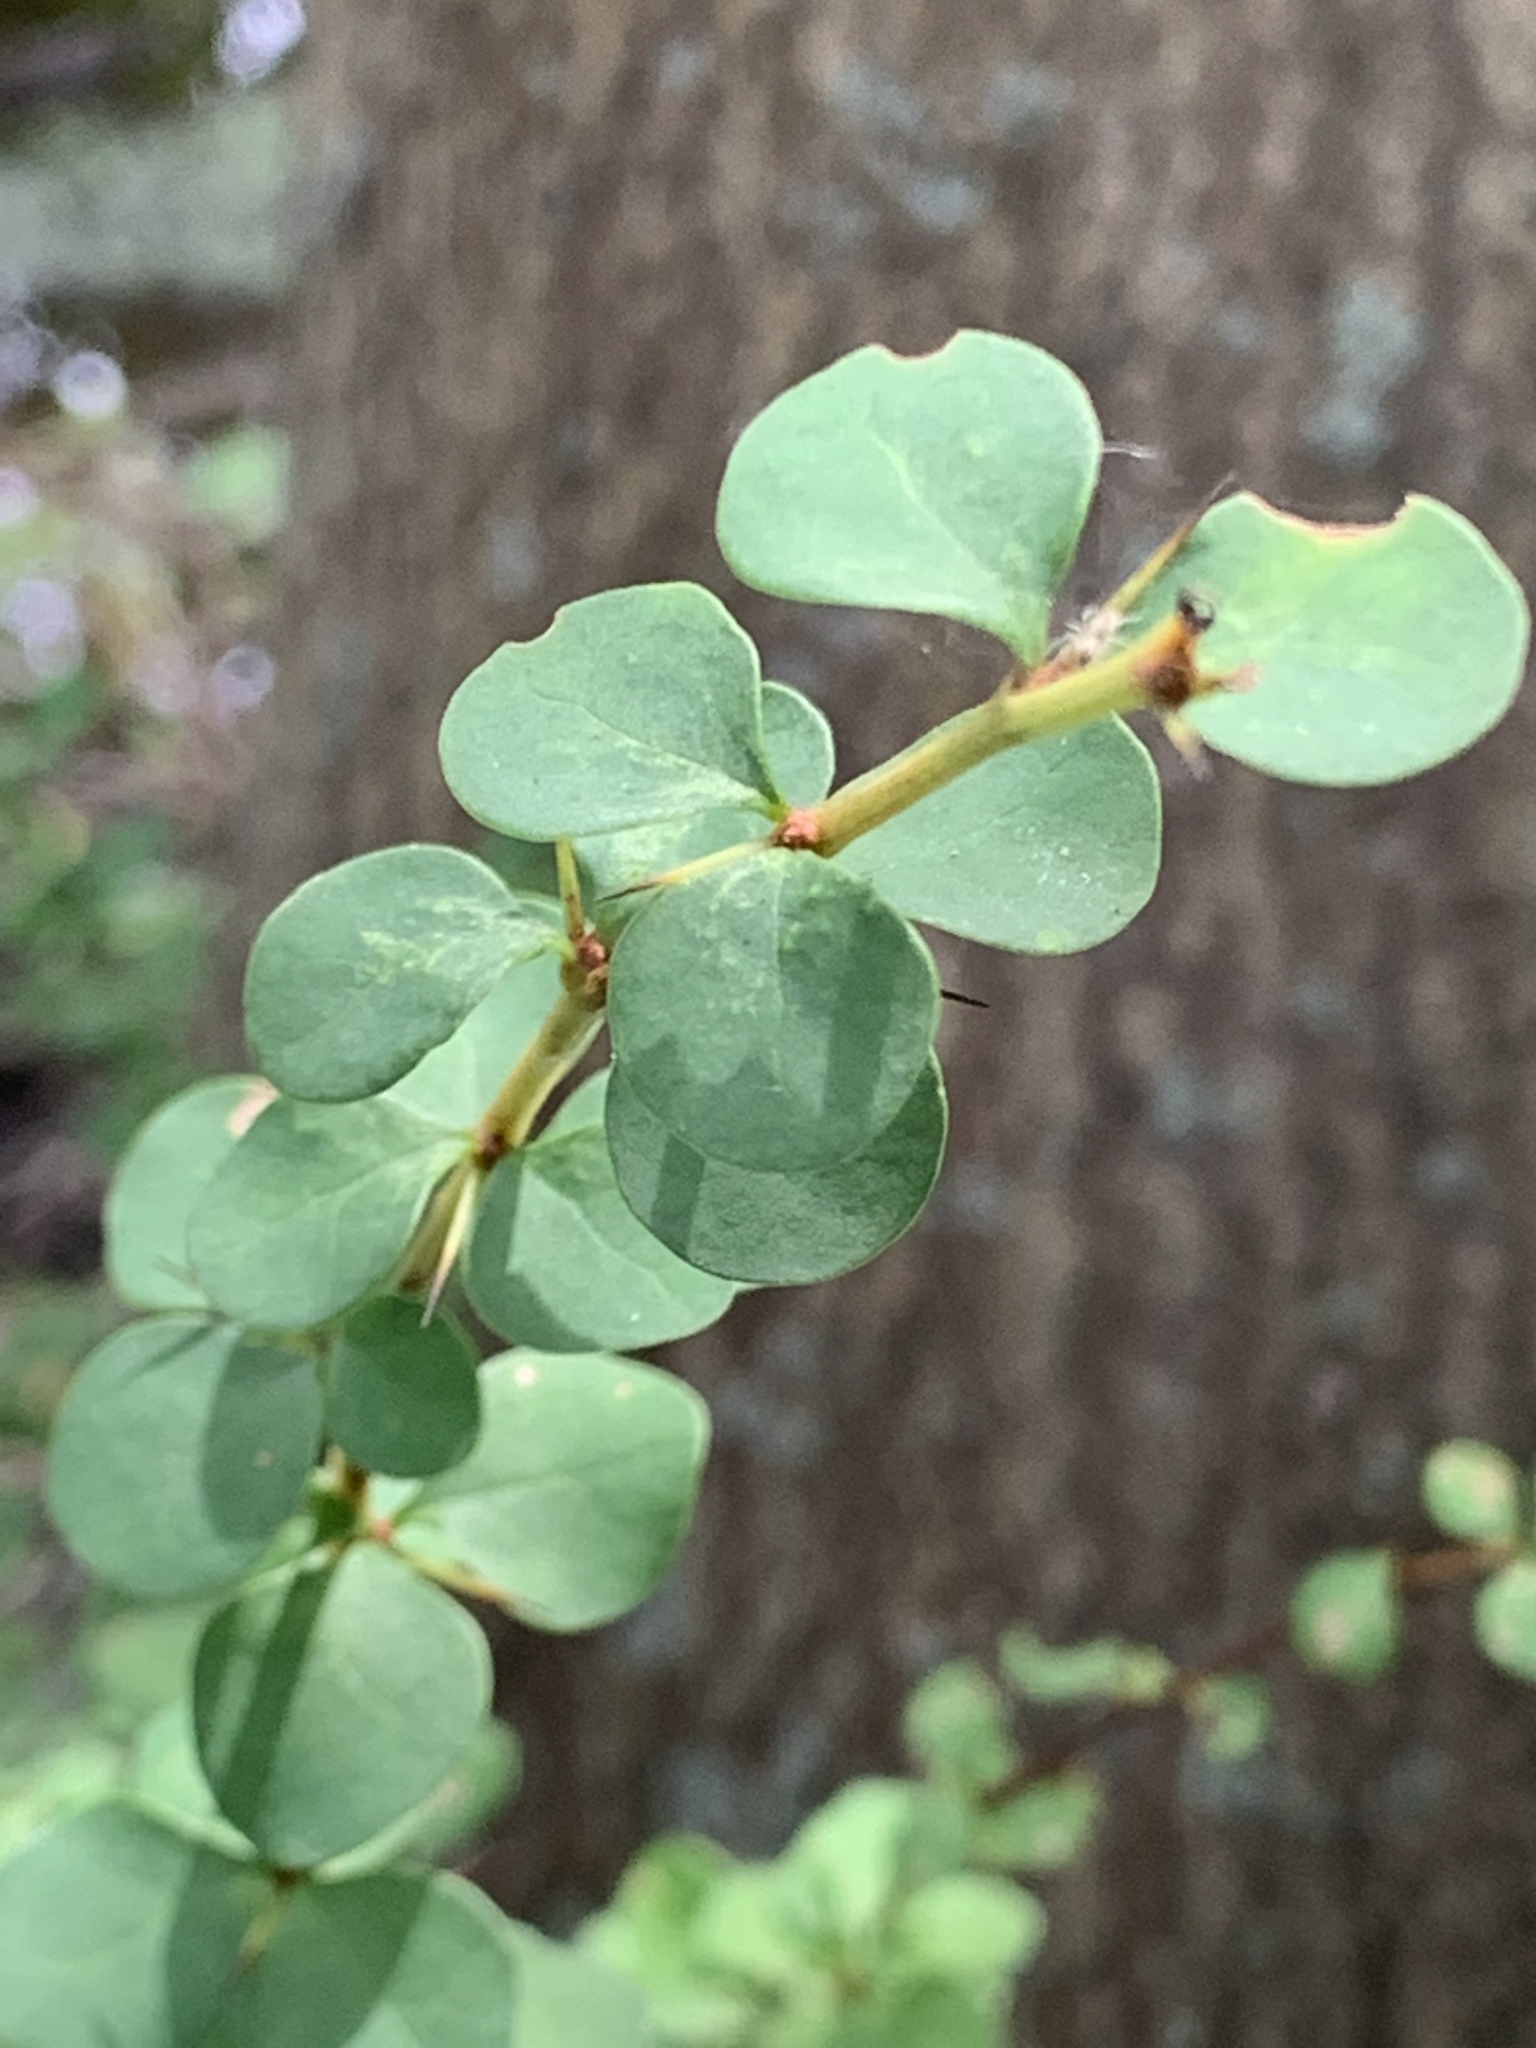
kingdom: Plantae
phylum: Tracheophyta
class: Magnoliopsida
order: Ranunculales
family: Berberidaceae
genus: Berberis
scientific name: Berberis thunbergii
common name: Japanese barberry
